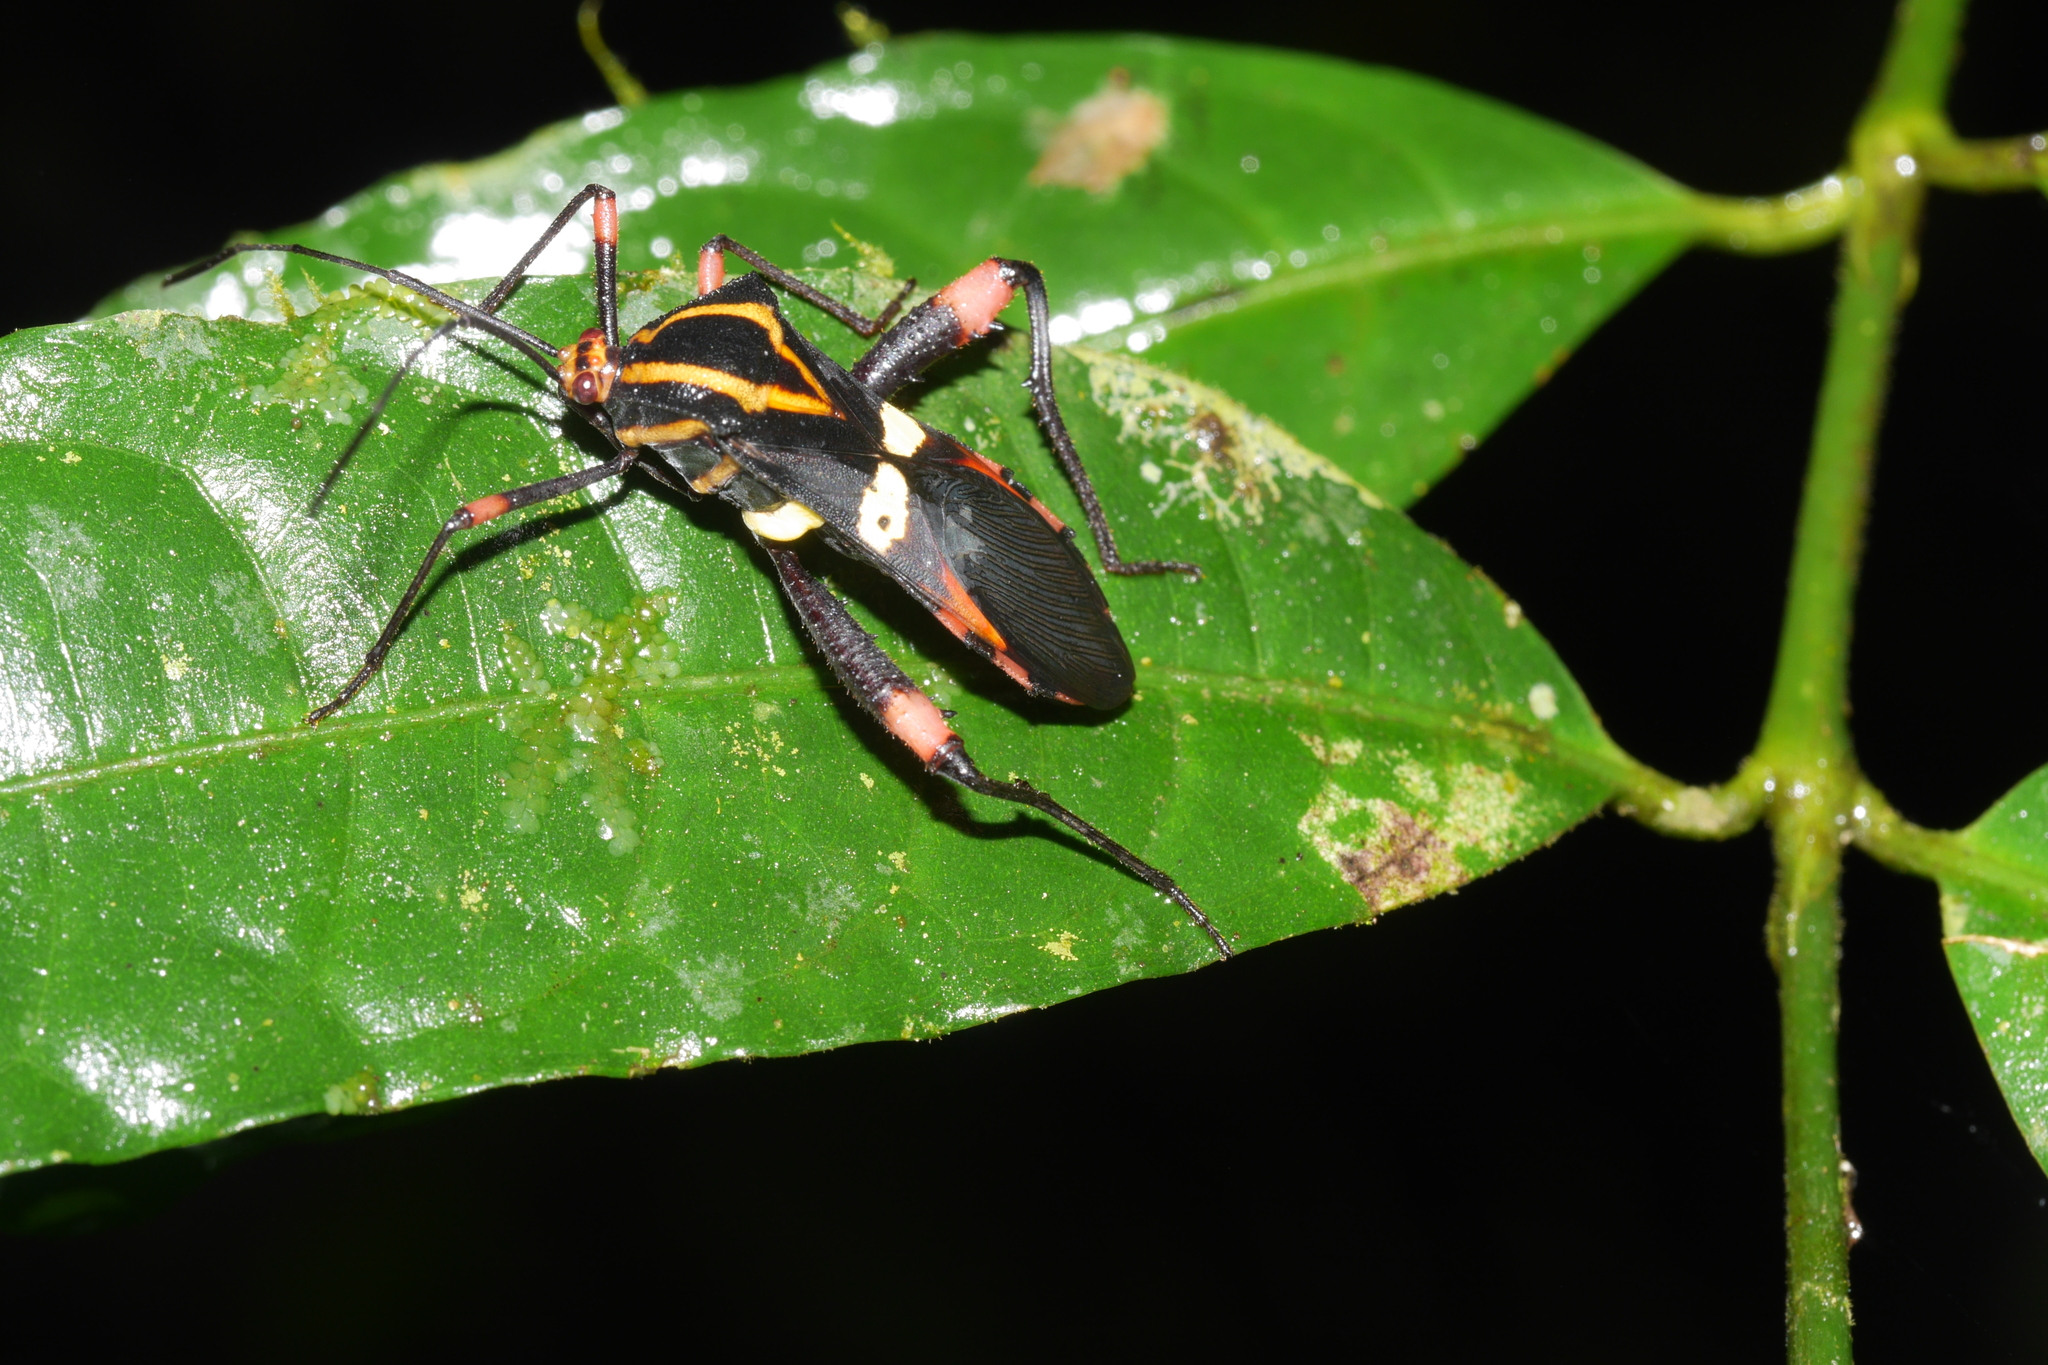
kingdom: Animalia
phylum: Arthropoda
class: Insecta
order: Hemiptera
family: Coreidae
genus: Schaeferocoris
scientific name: Schaeferocoris ecuadorensis
